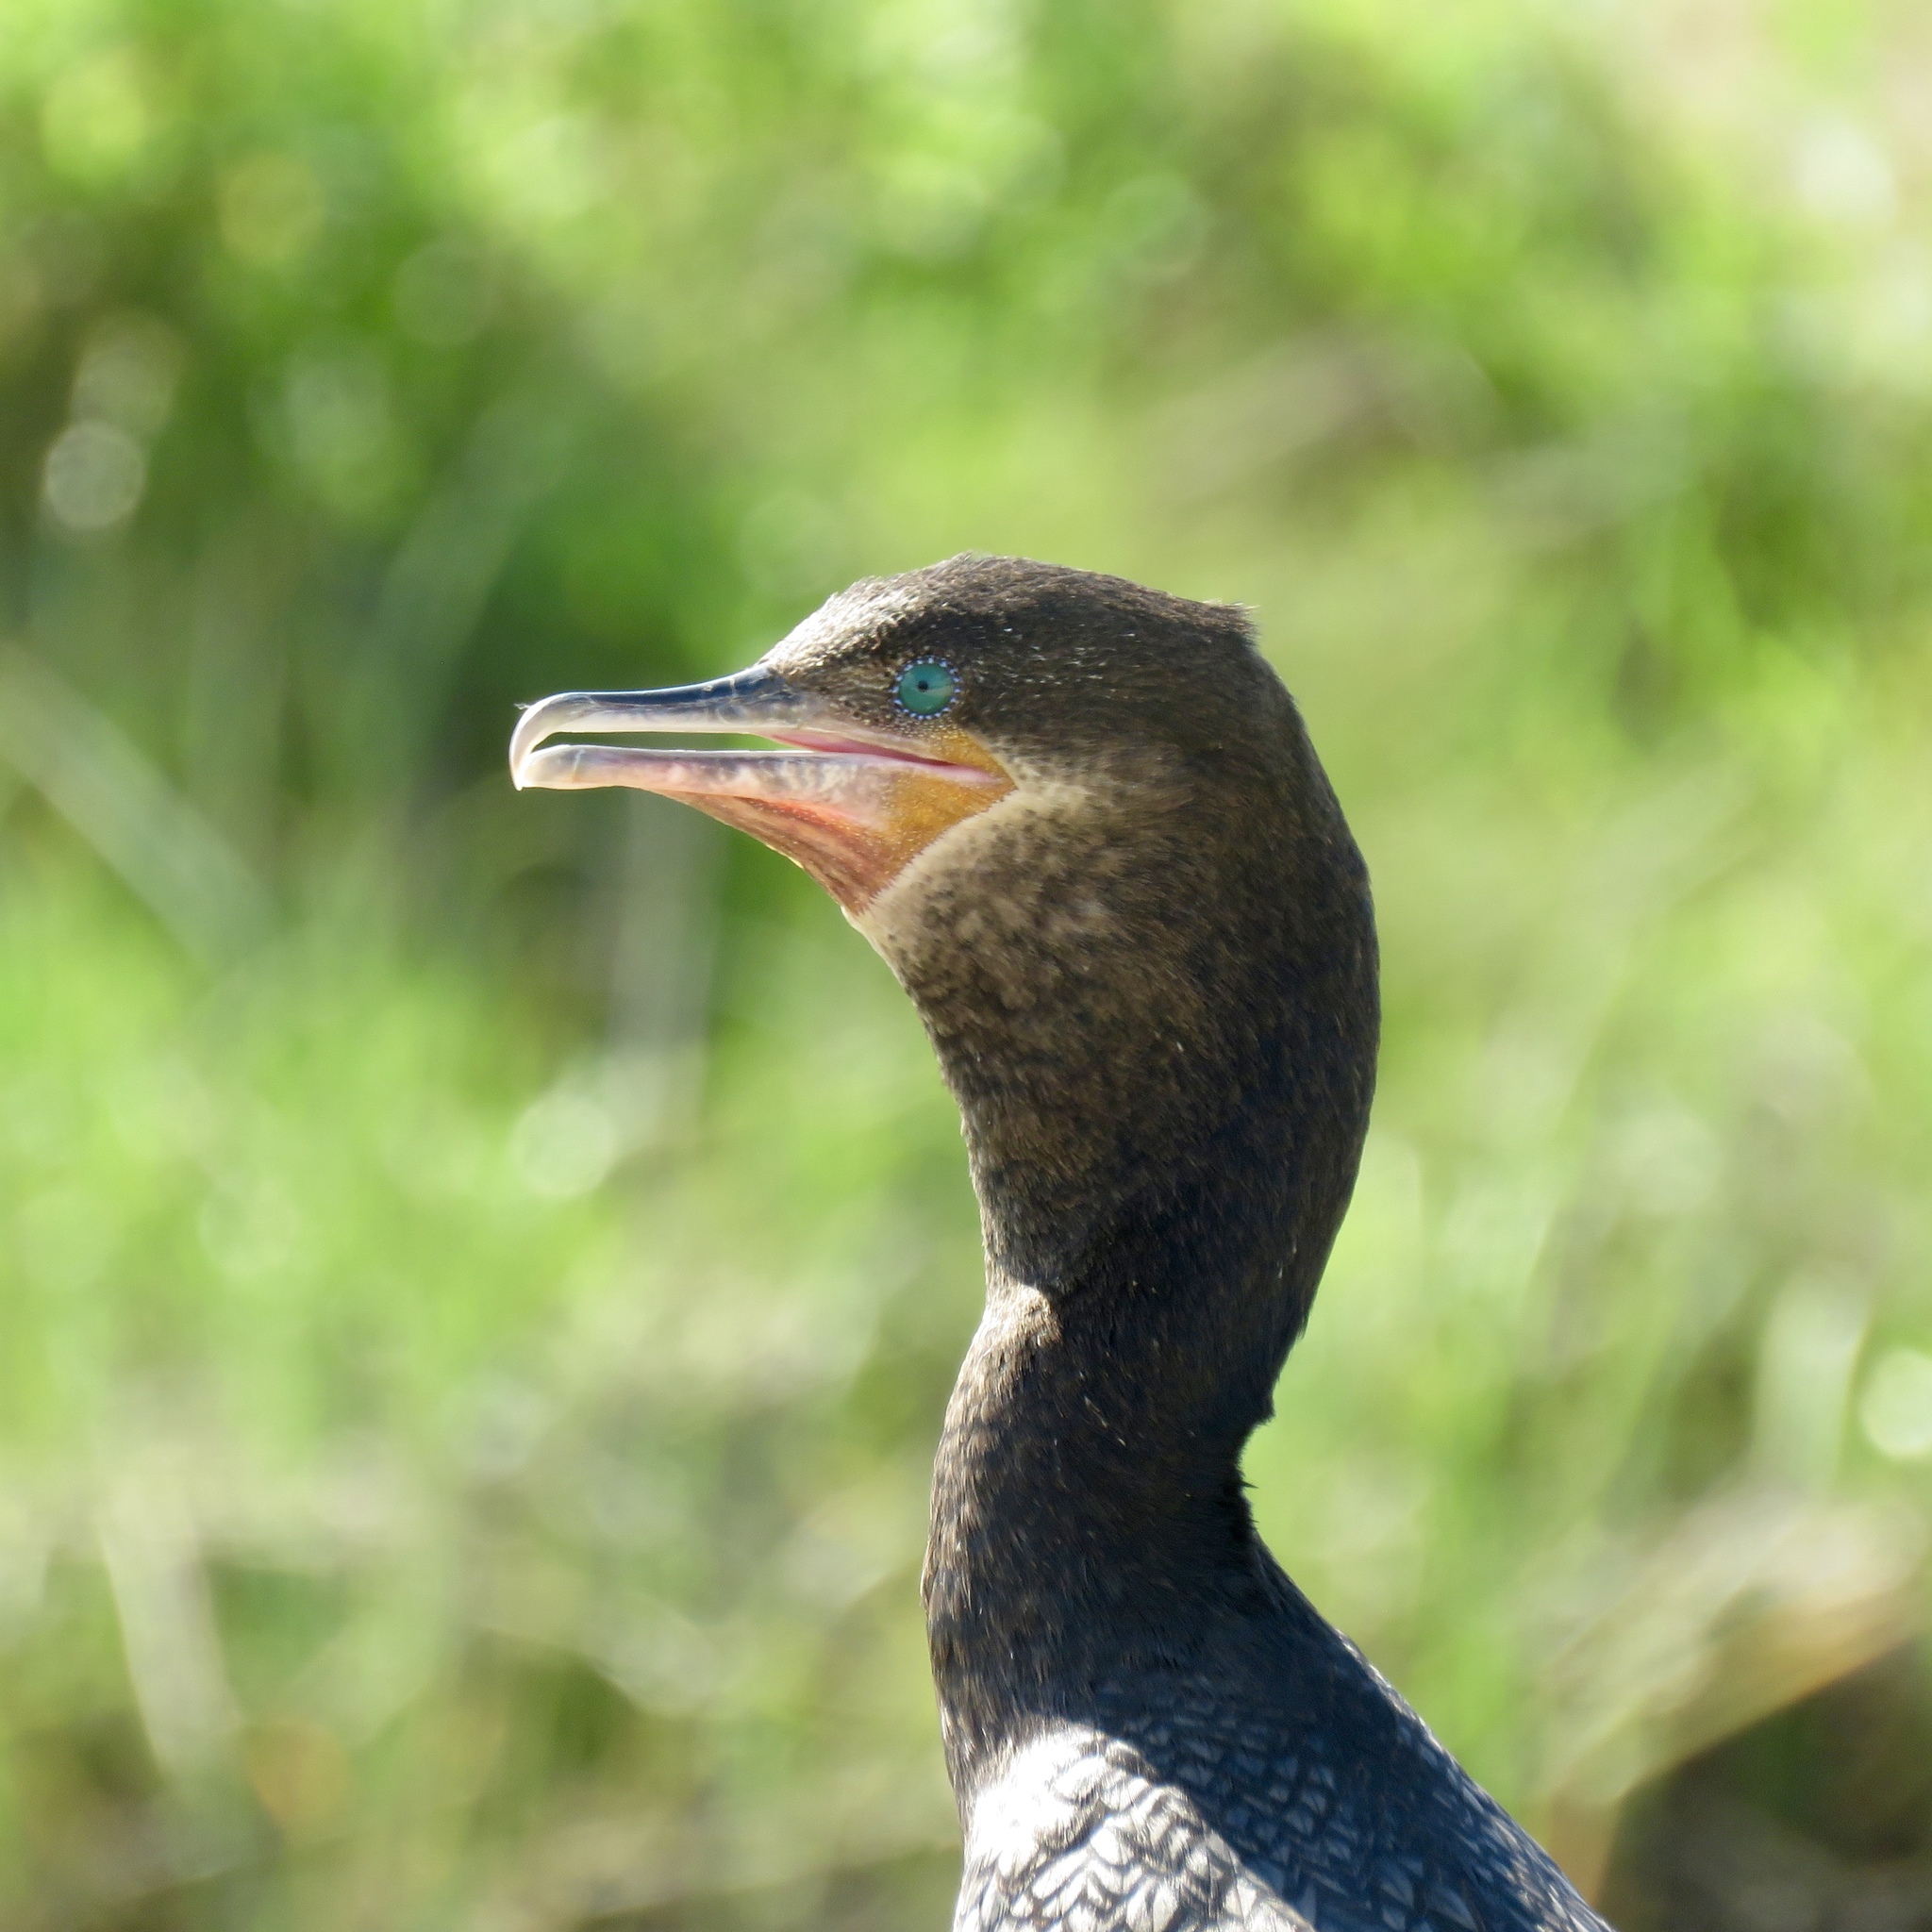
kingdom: Animalia
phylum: Chordata
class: Aves
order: Suliformes
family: Phalacrocoracidae
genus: Phalacrocorax
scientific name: Phalacrocorax brasilianus
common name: Neotropic cormorant
